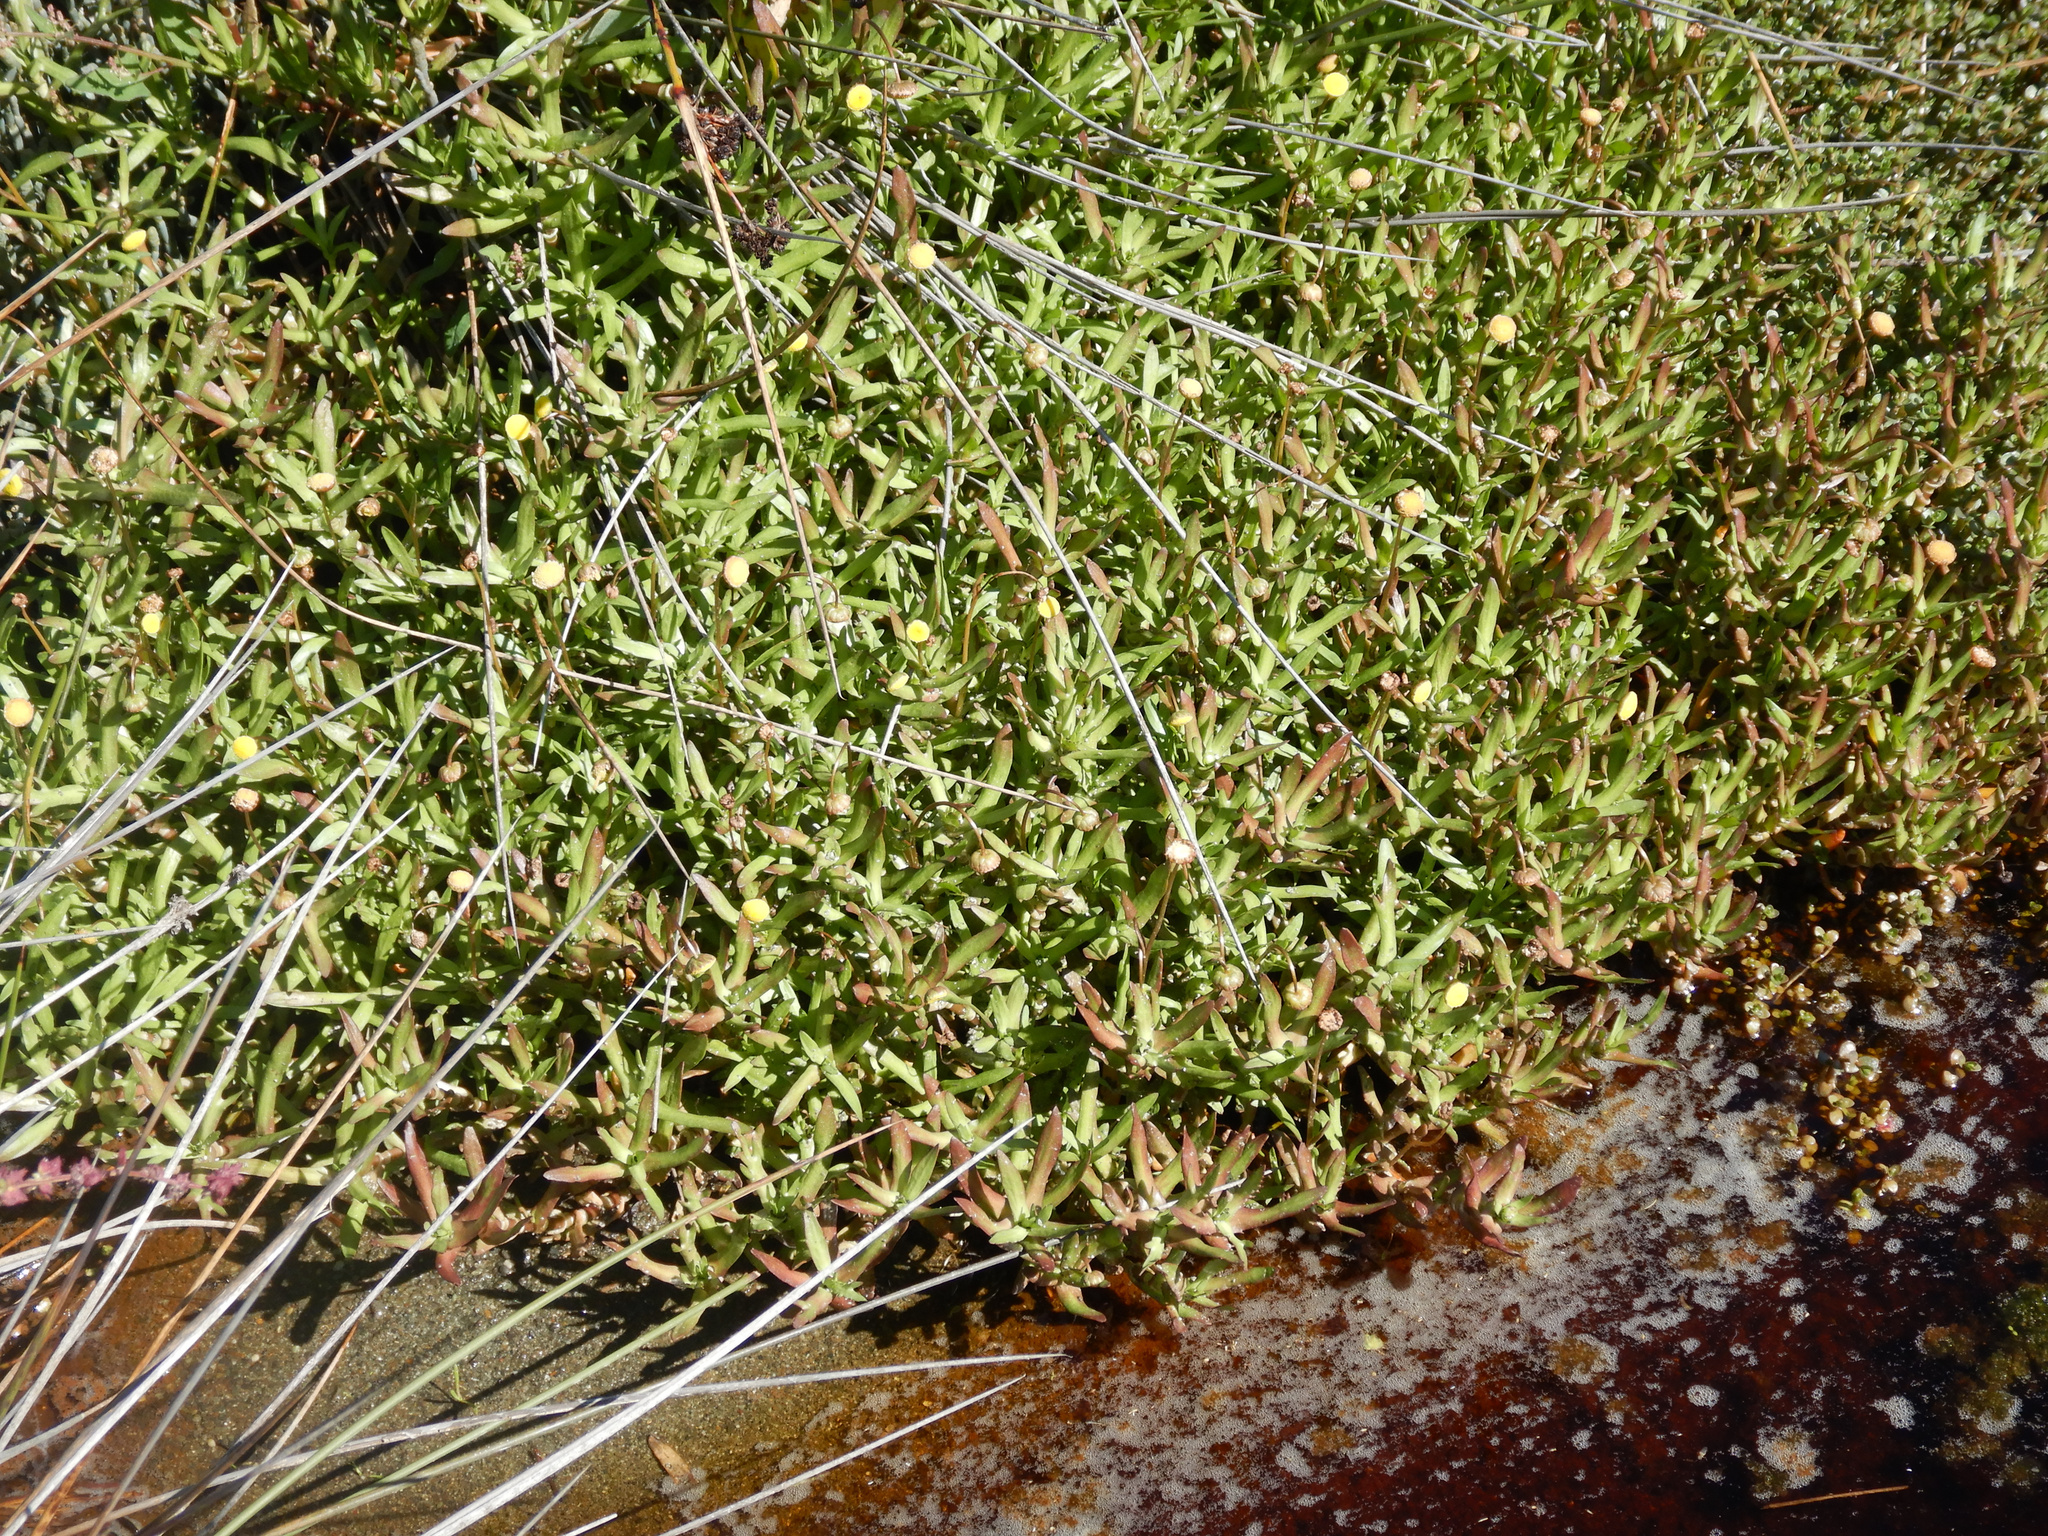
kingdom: Plantae
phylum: Tracheophyta
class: Magnoliopsida
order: Asterales
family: Asteraceae
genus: Cotula
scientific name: Cotula coronopifolia
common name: Buttonweed
